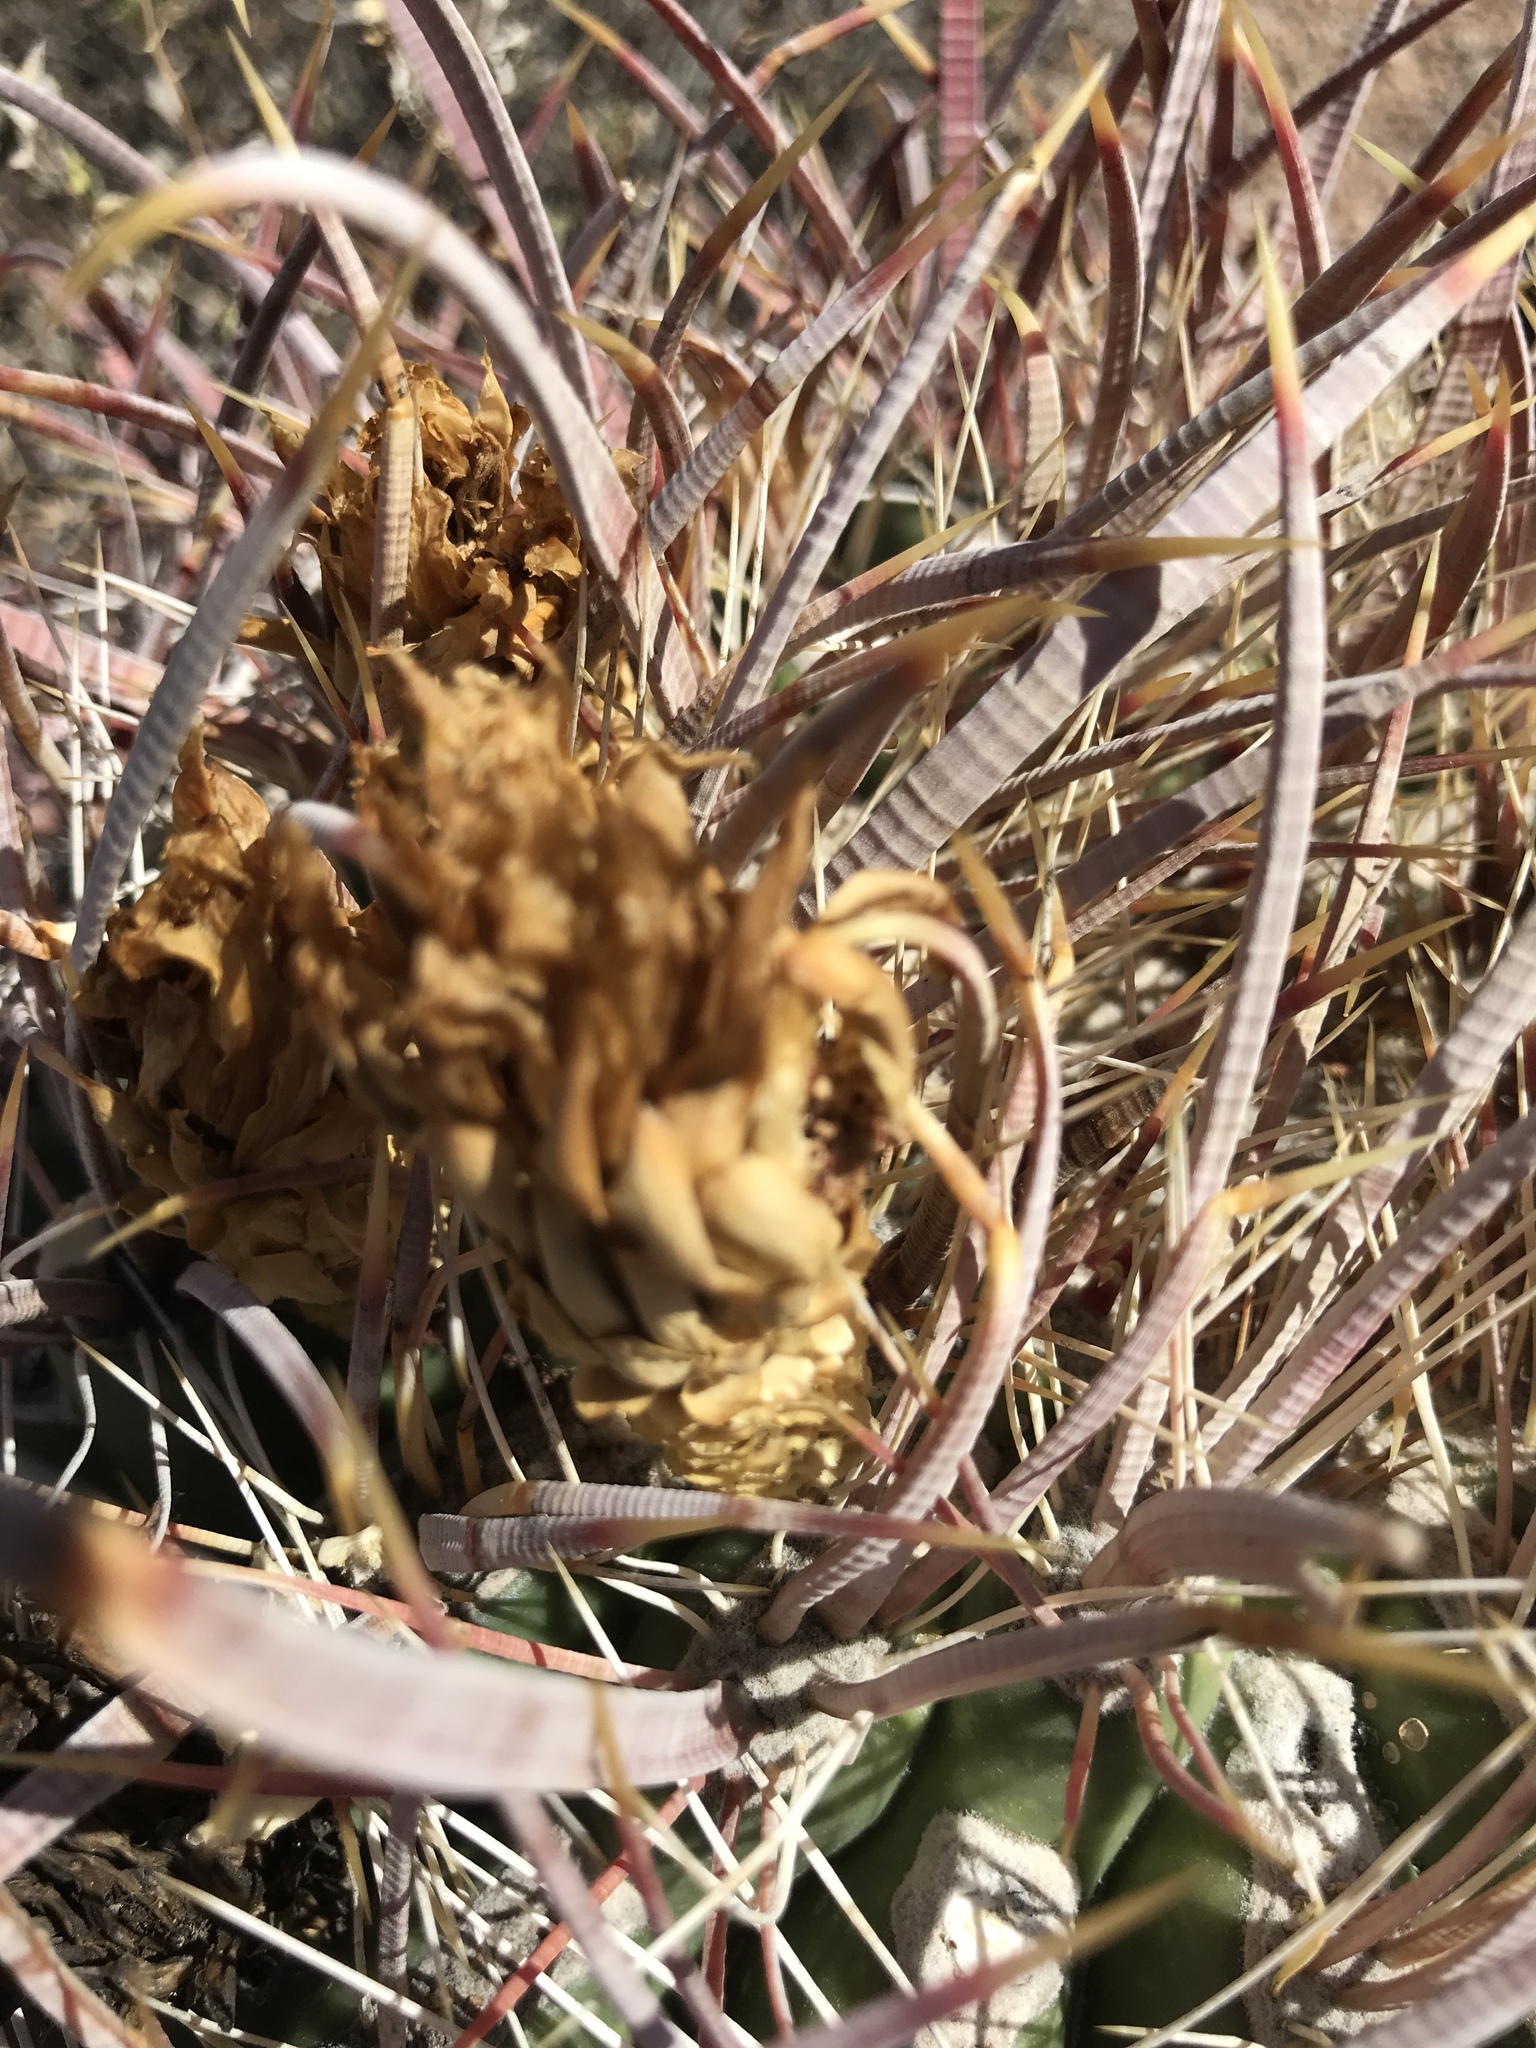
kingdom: Plantae
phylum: Tracheophyta
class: Magnoliopsida
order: Caryophyllales
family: Cactaceae
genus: Ferocactus
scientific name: Ferocactus cylindraceus
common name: California barrel cactus
